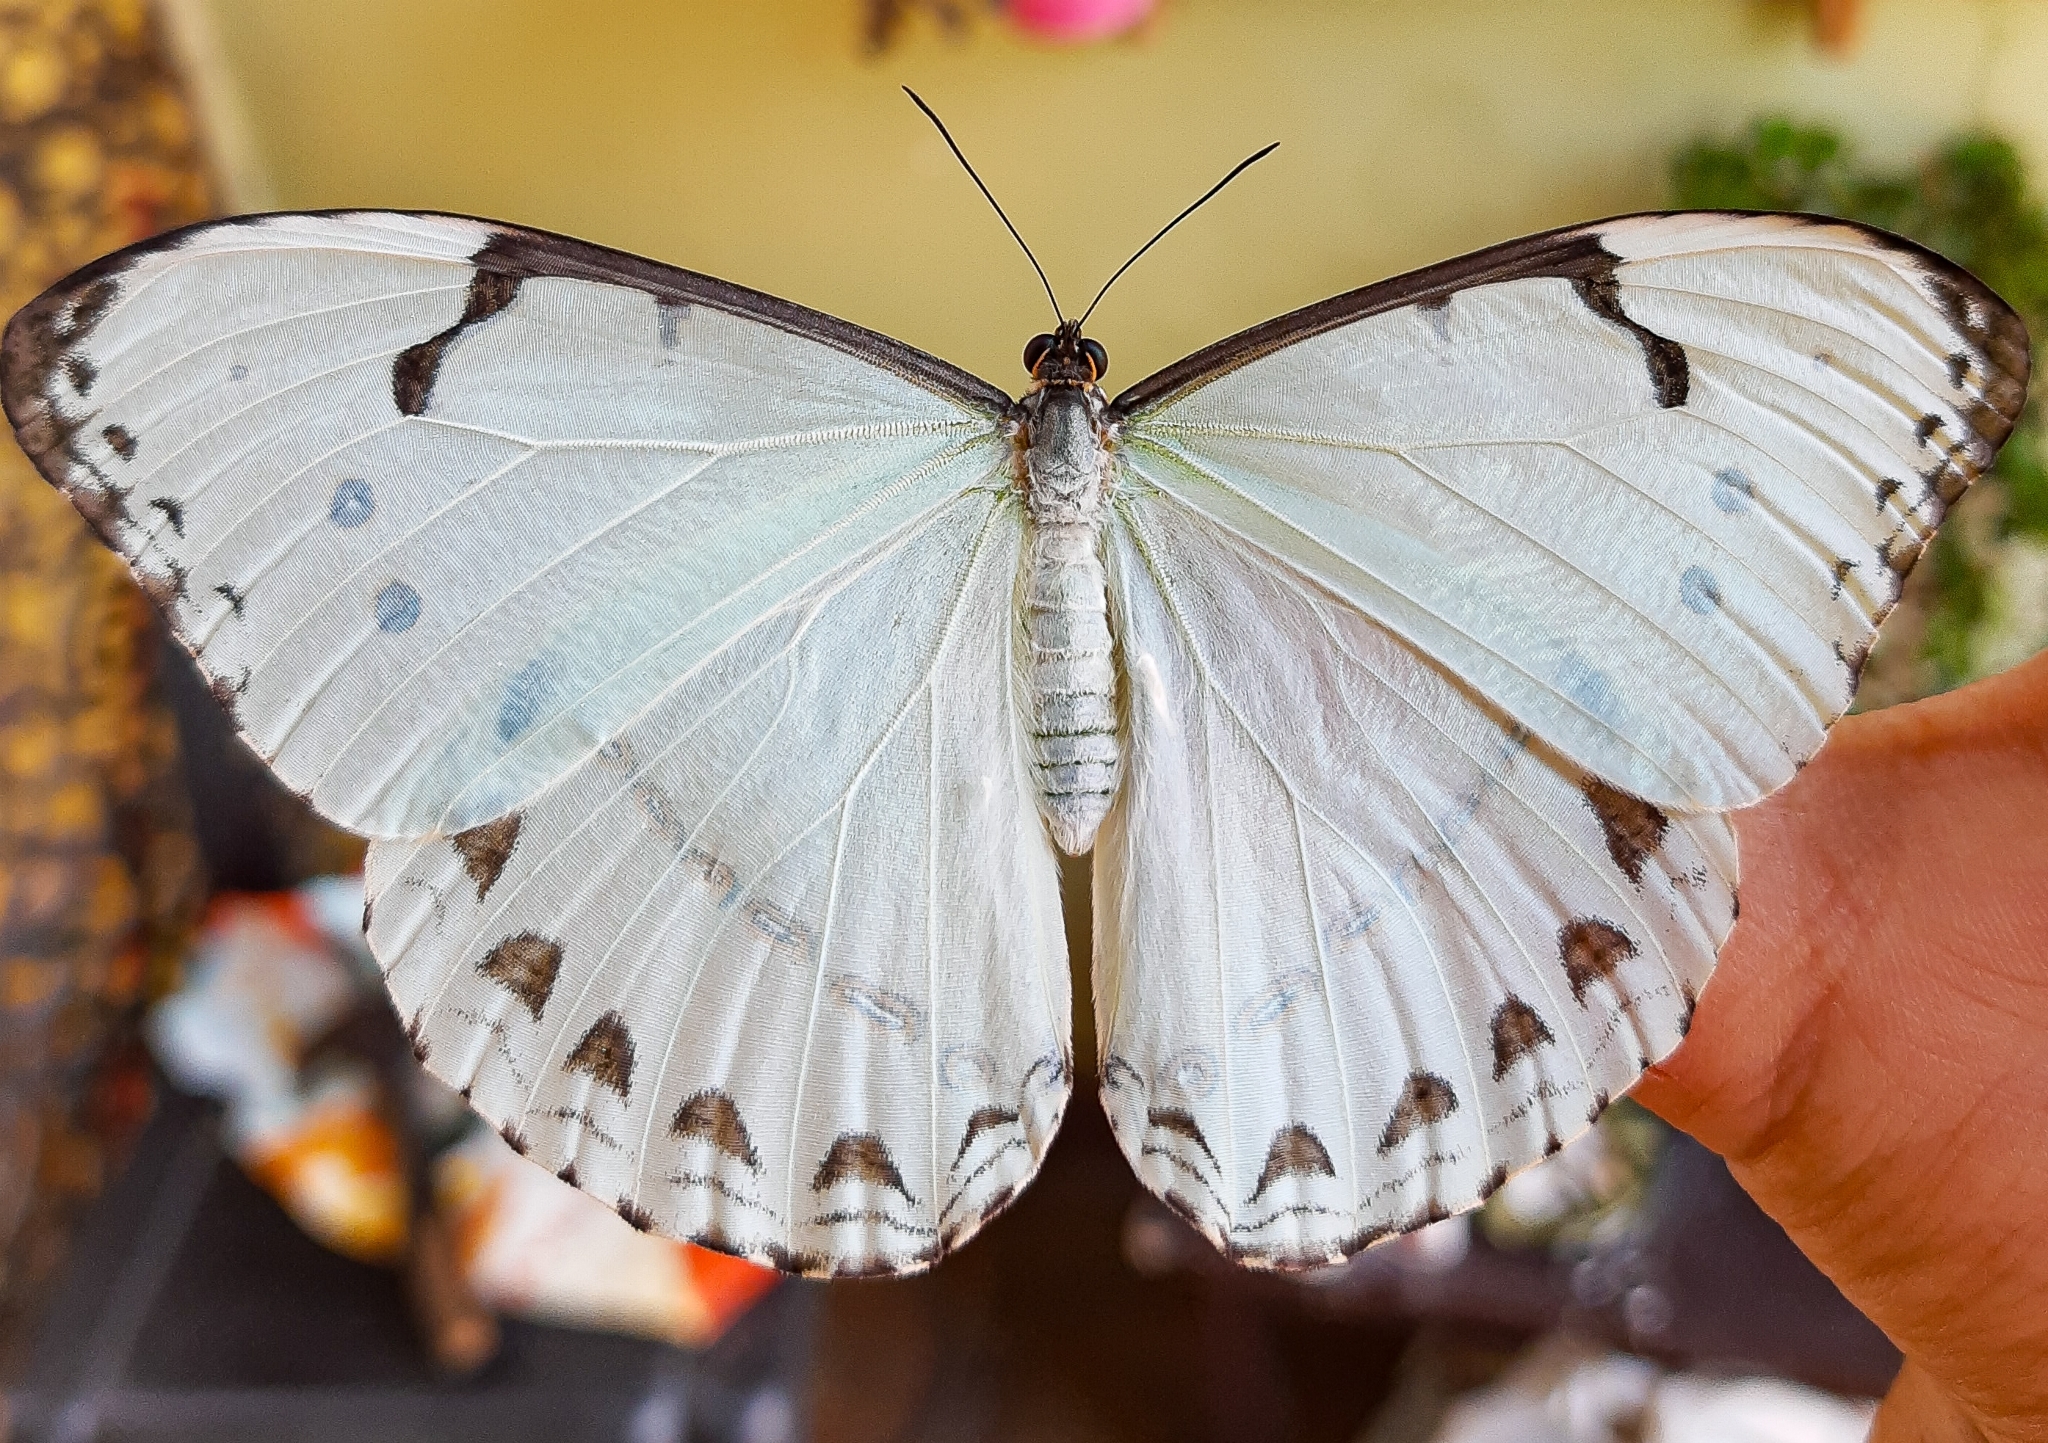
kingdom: Animalia
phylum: Arthropoda
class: Insecta
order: Lepidoptera
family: Nymphalidae
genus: Morpho
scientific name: Morpho epistrophus
